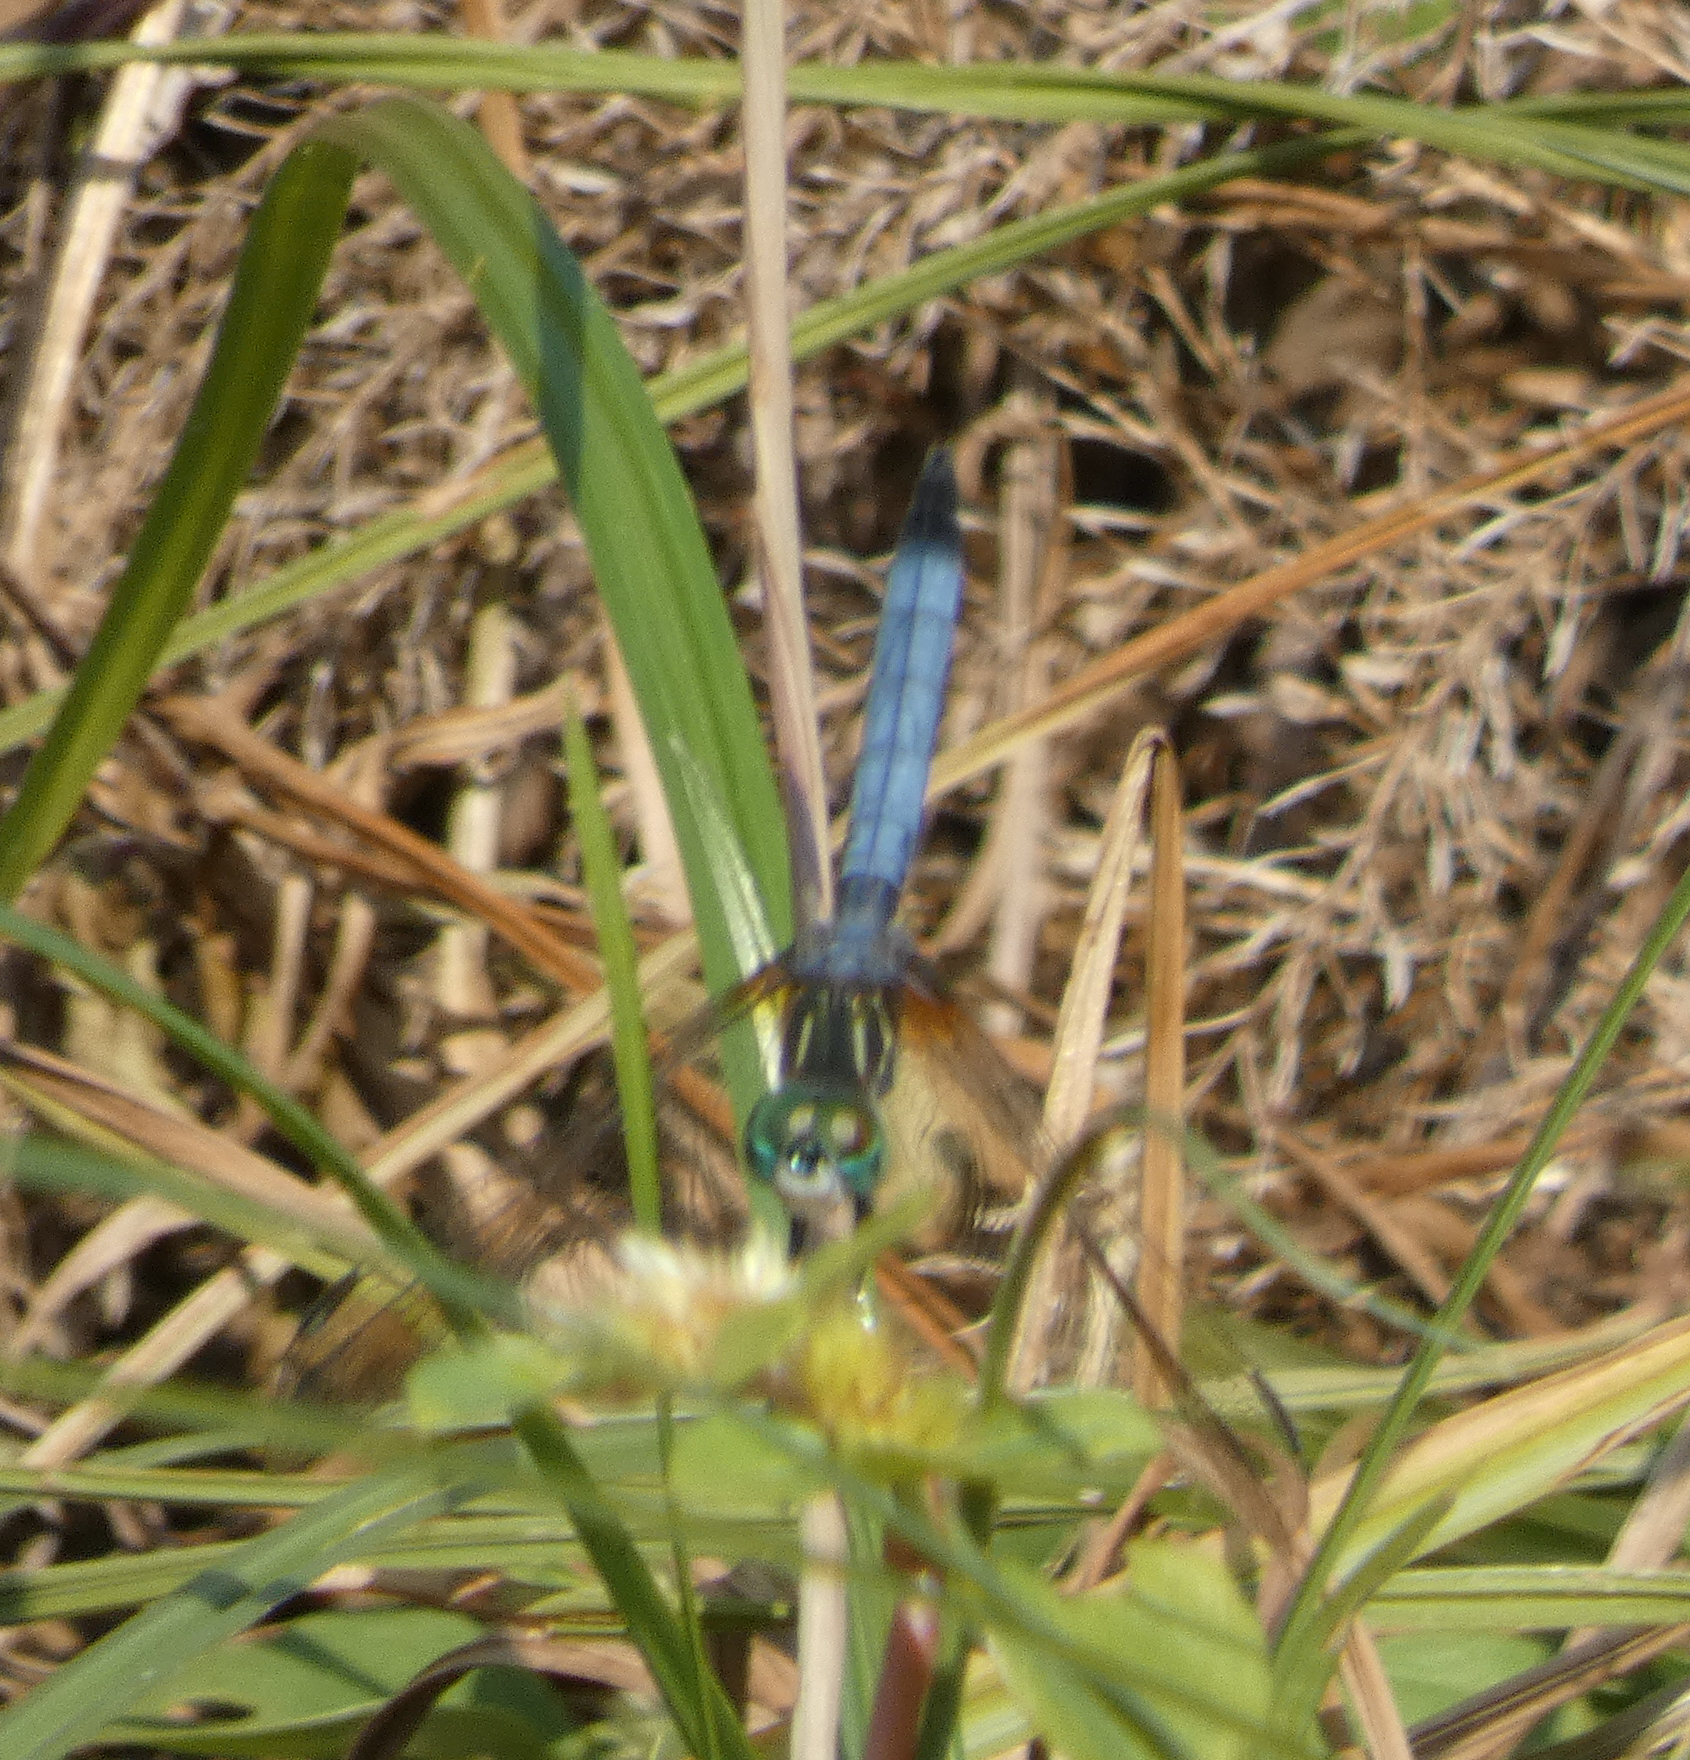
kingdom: Animalia
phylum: Arthropoda
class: Insecta
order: Odonata
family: Libellulidae
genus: Pachydiplax
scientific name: Pachydiplax longipennis
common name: Blue dasher
